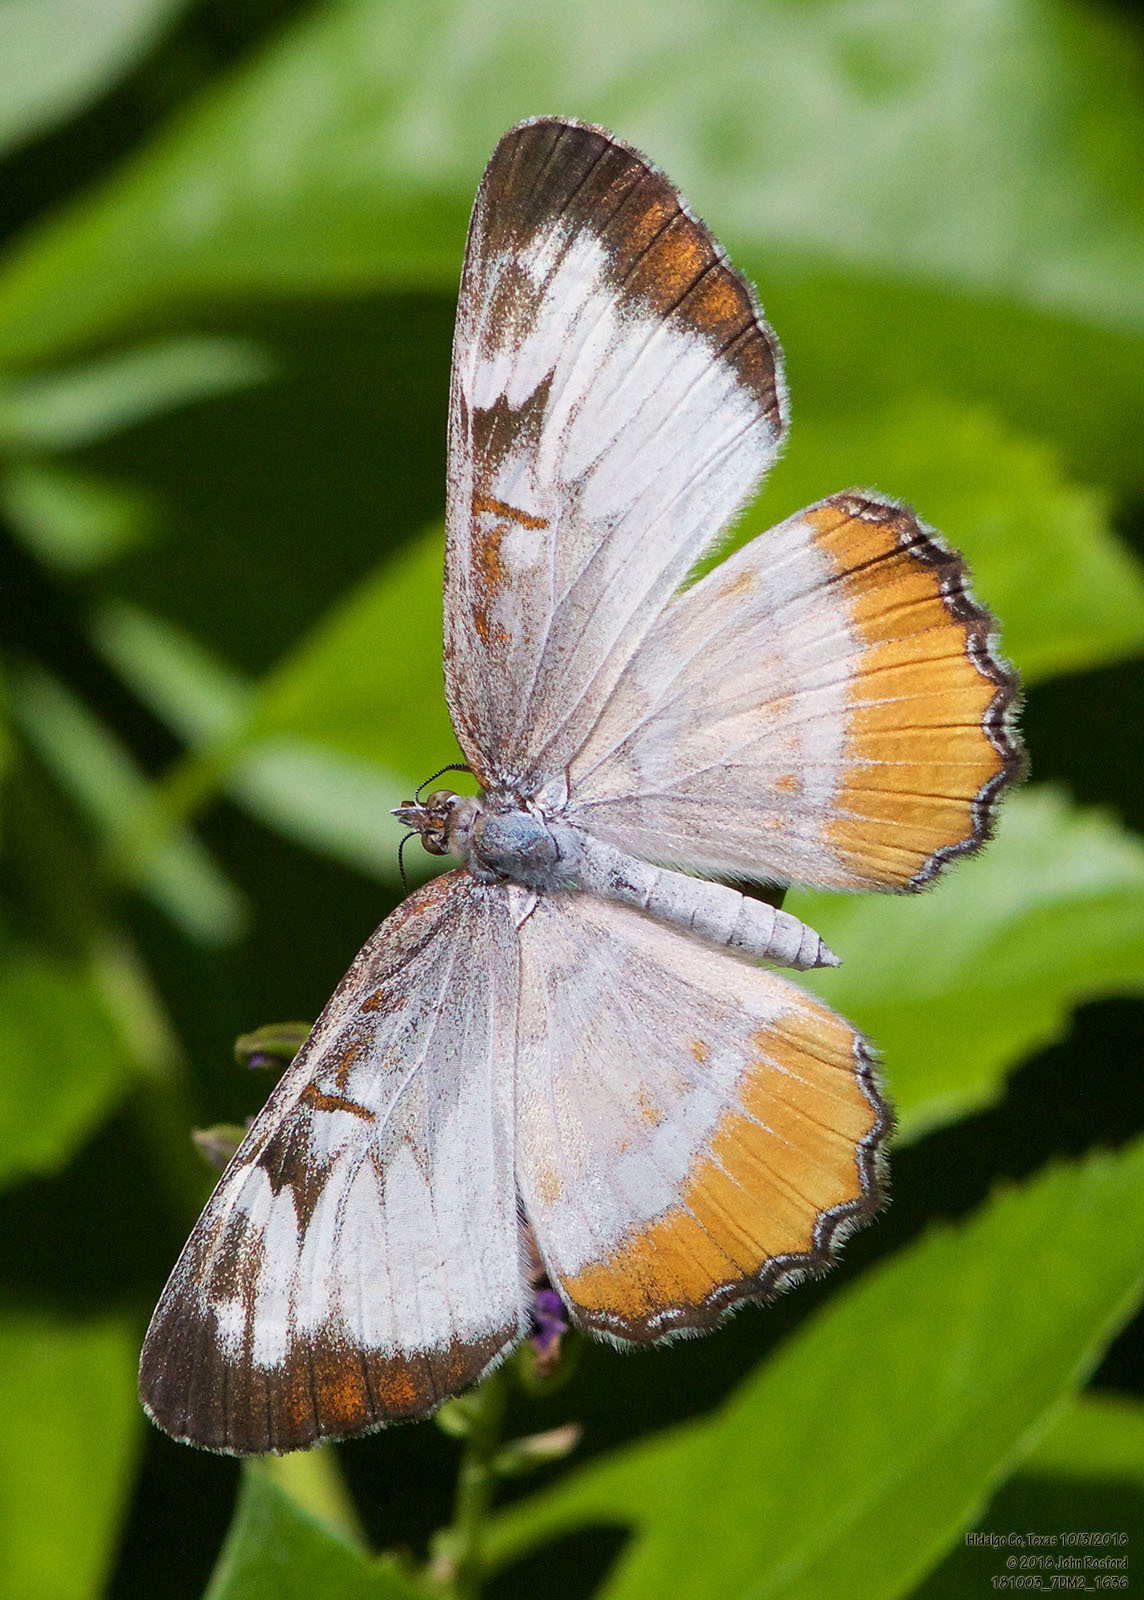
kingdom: Animalia
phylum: Arthropoda
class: Insecta
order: Lepidoptera
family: Nymphalidae
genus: Mestra
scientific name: Mestra amymone
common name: Common mestra
